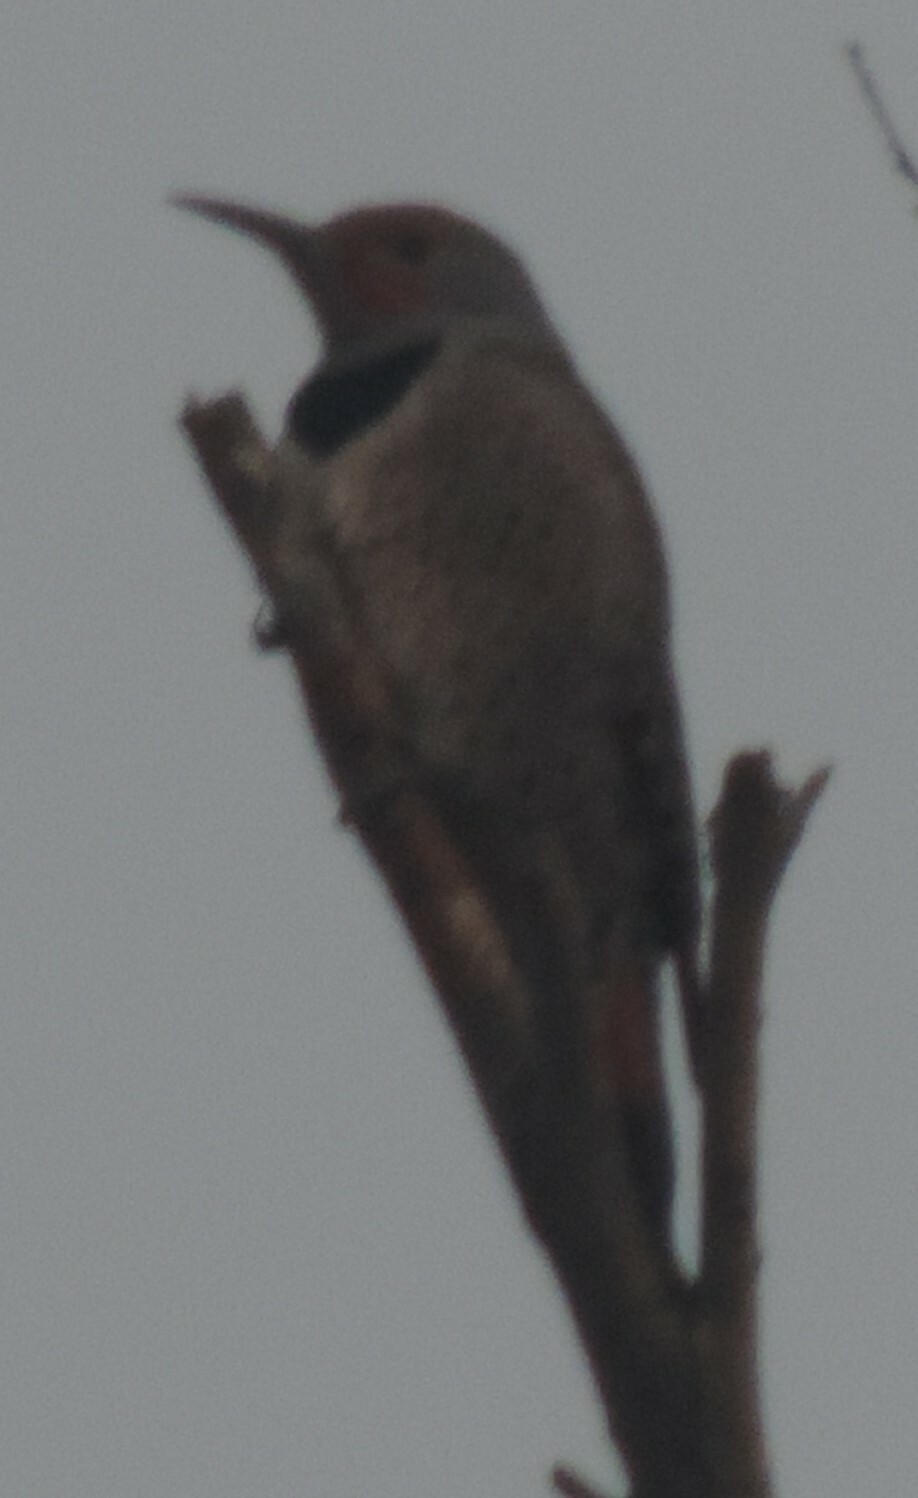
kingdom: Animalia
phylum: Chordata
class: Aves
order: Piciformes
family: Picidae
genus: Colaptes
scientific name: Colaptes auratus
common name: Northern flicker
